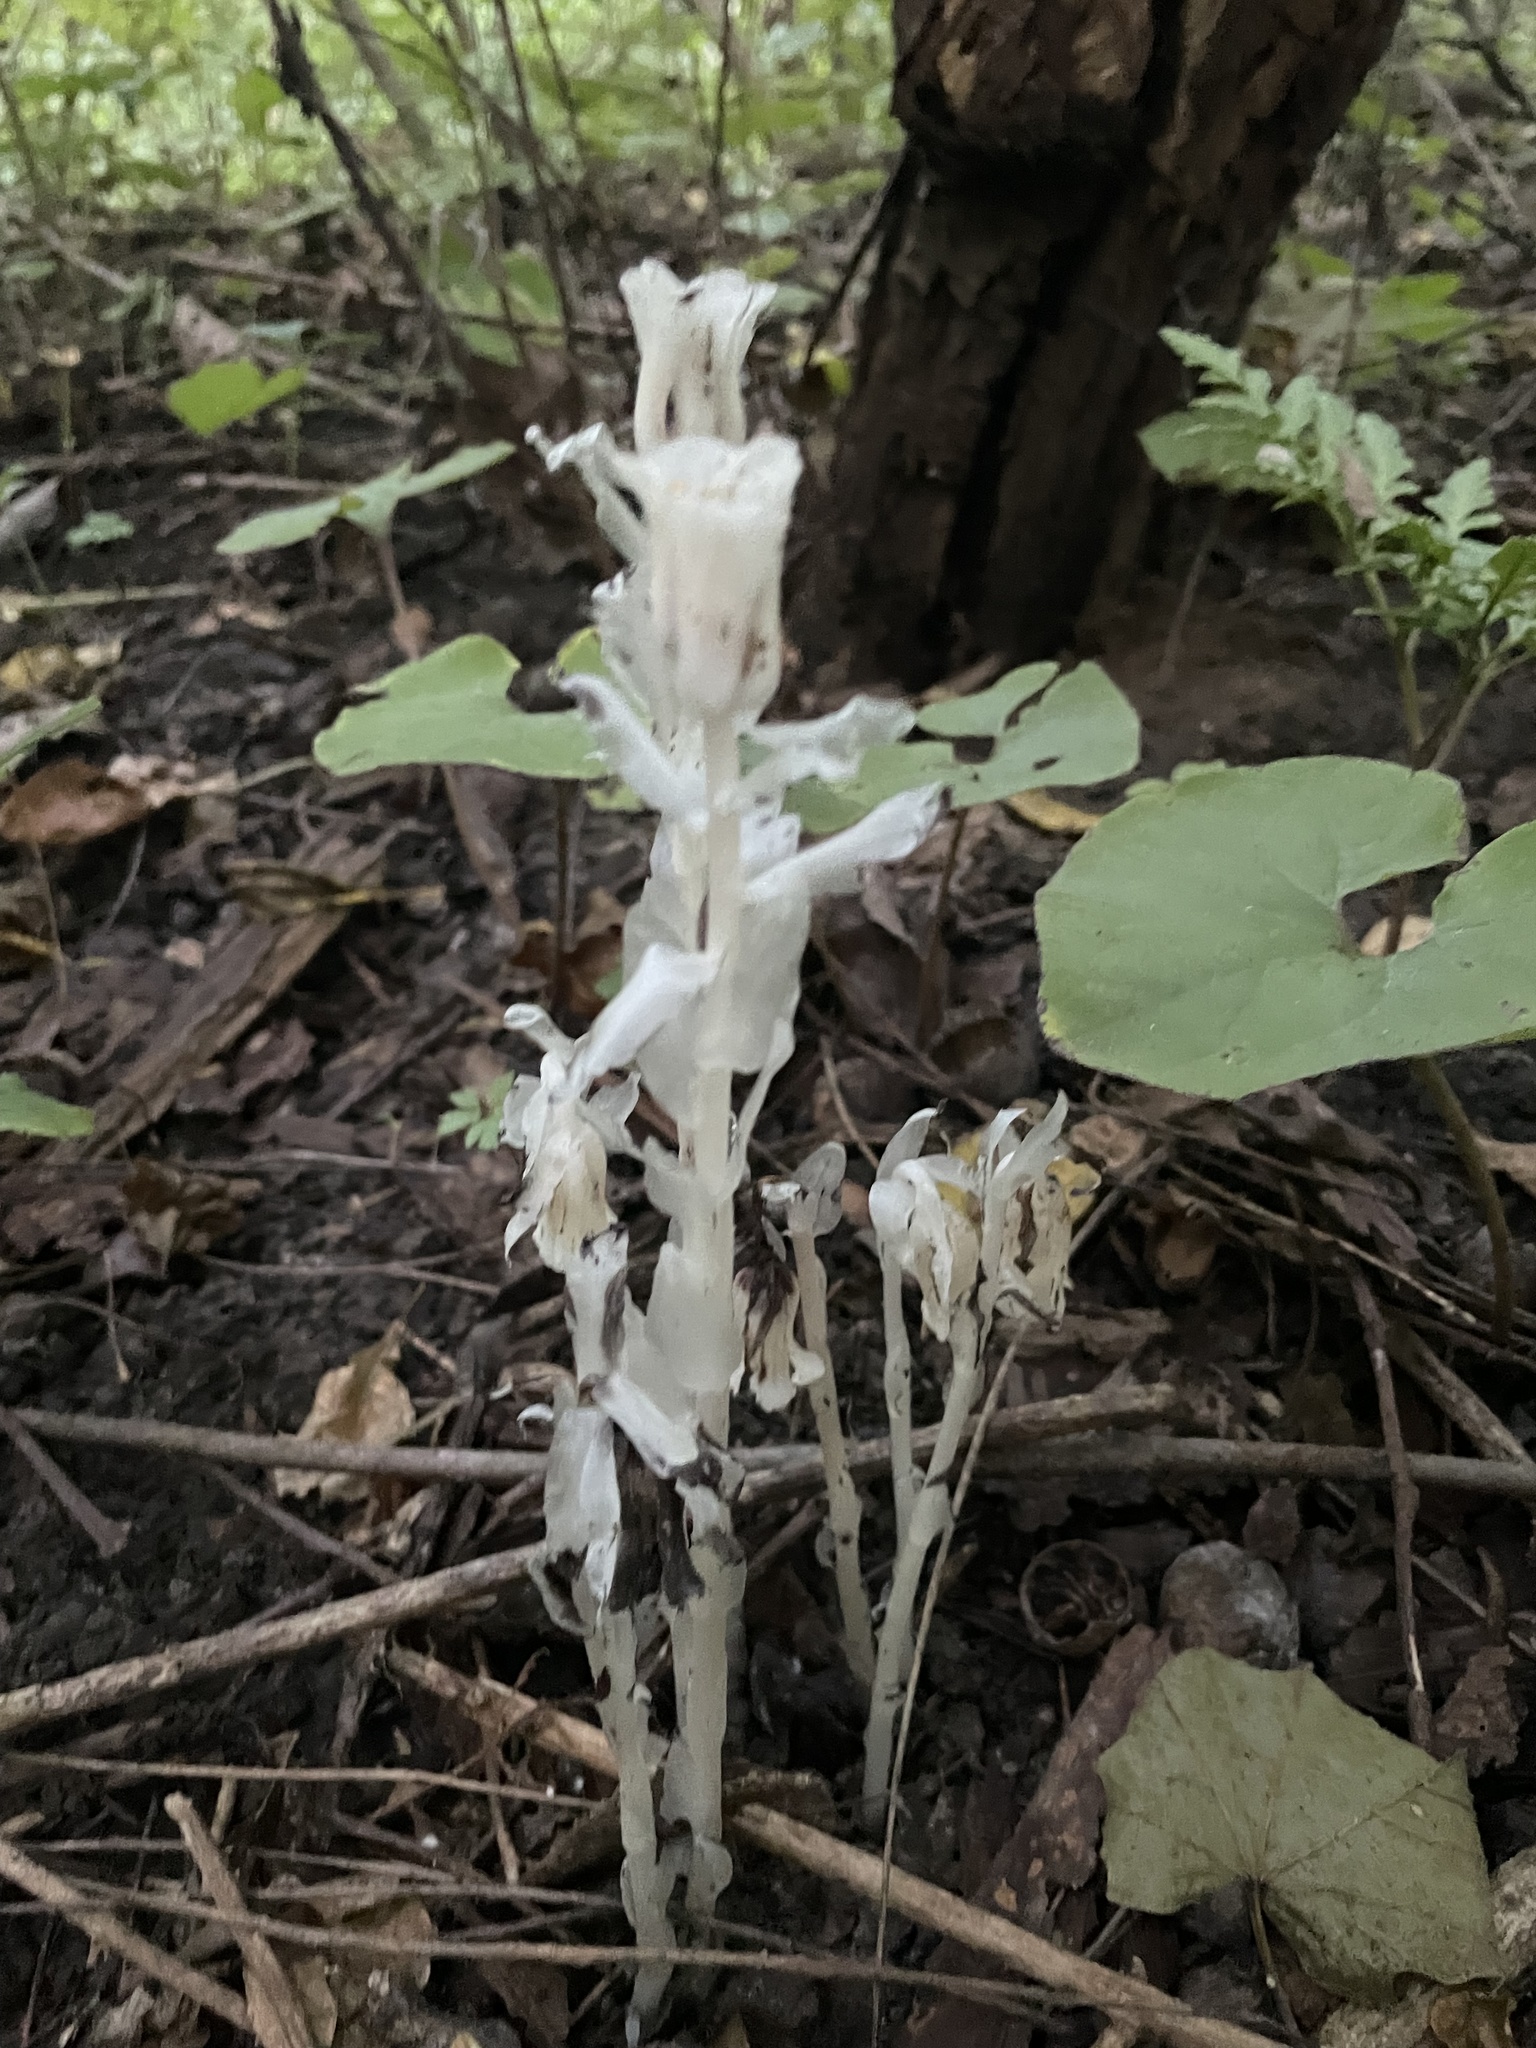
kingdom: Plantae
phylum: Tracheophyta
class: Magnoliopsida
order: Ericales
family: Ericaceae
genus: Monotropa
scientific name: Monotropa uniflora
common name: Convulsion root
